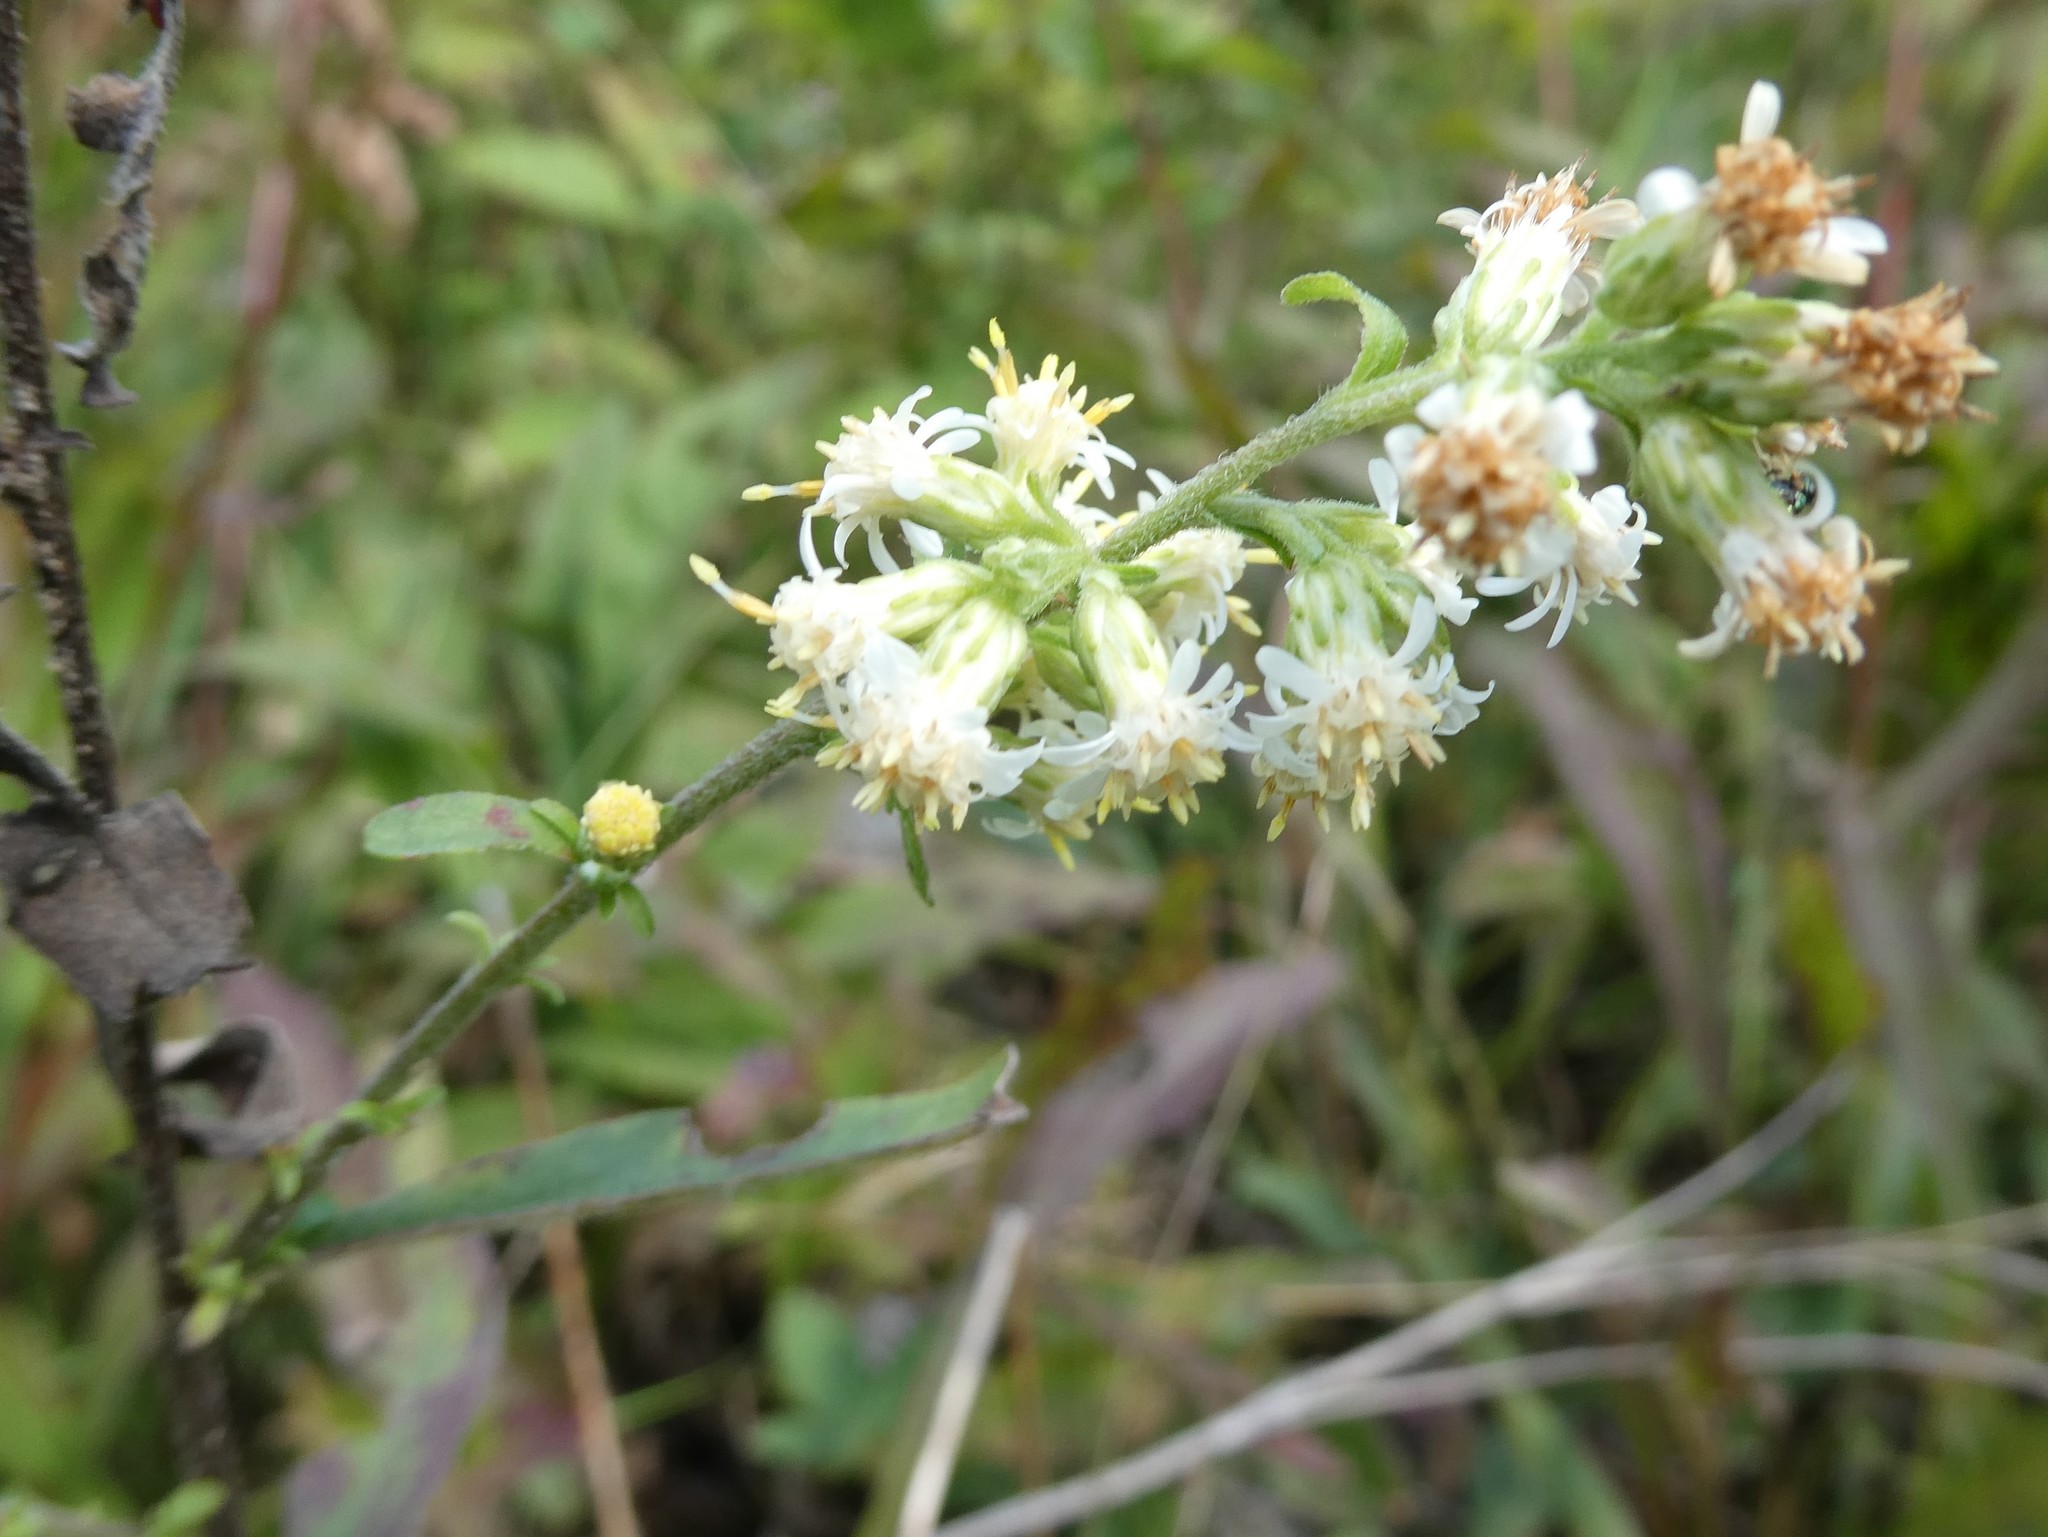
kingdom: Plantae
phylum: Tracheophyta
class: Magnoliopsida
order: Asterales
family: Asteraceae
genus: Solidago
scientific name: Solidago bicolor
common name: Silverrod
